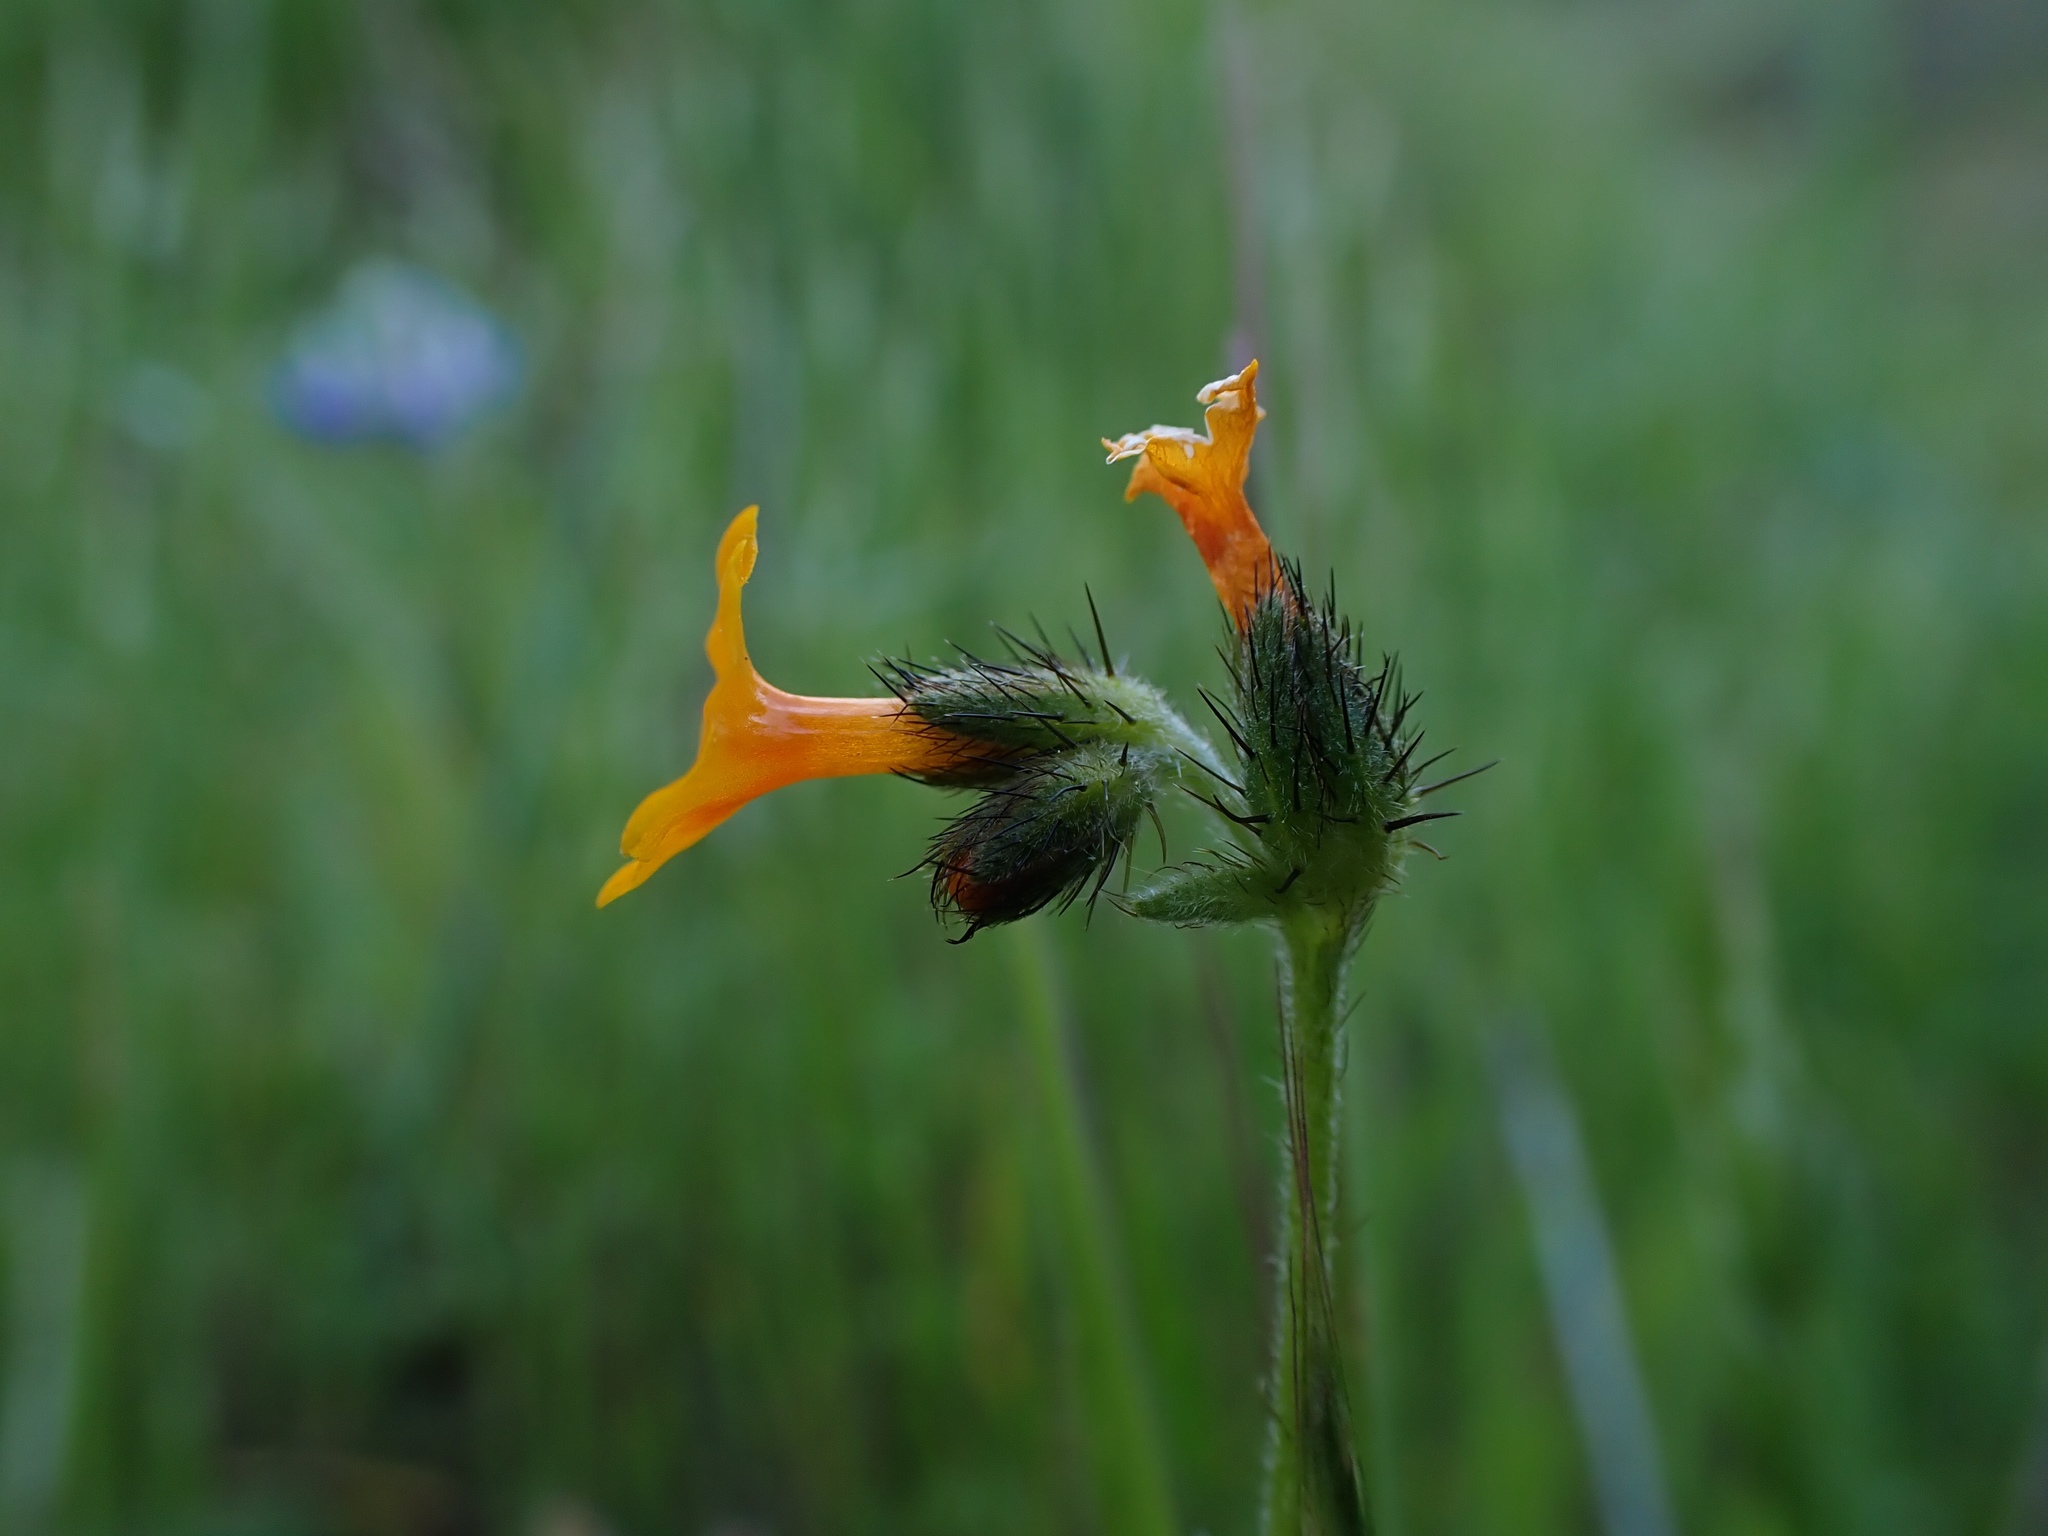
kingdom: Plantae
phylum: Tracheophyta
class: Magnoliopsida
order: Boraginales
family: Boraginaceae
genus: Amsinckia
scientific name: Amsinckia lunaris
